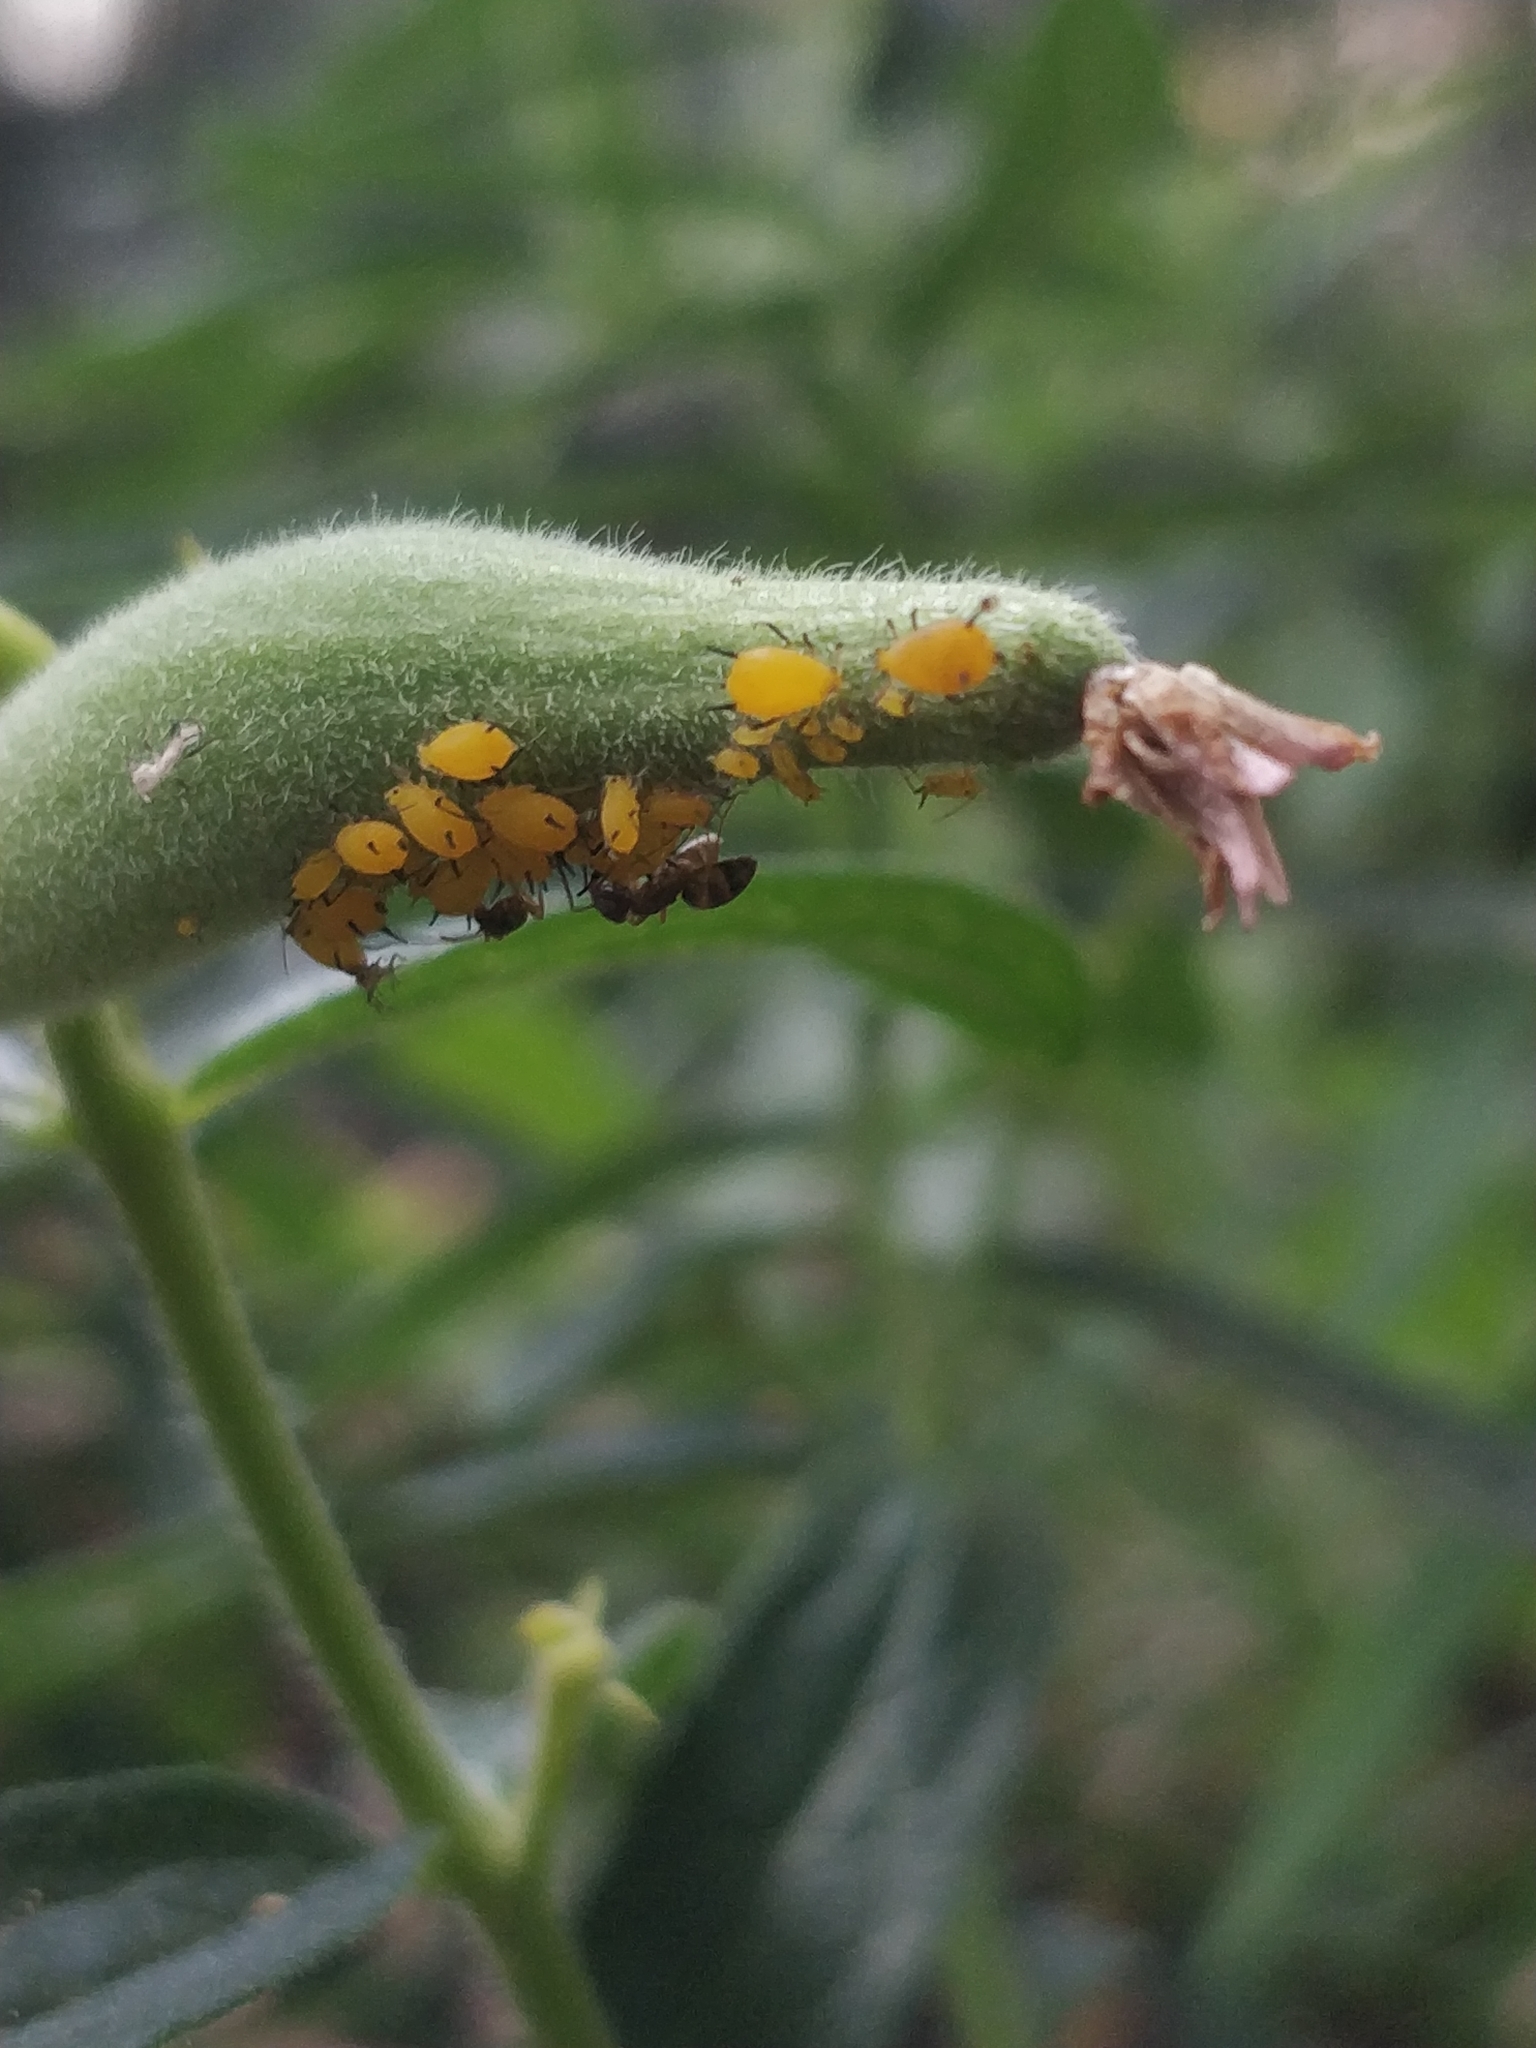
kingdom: Animalia
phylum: Arthropoda
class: Insecta
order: Hymenoptera
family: Formicidae
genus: Tapinoma
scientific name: Tapinoma sessile
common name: Odorous house ant
